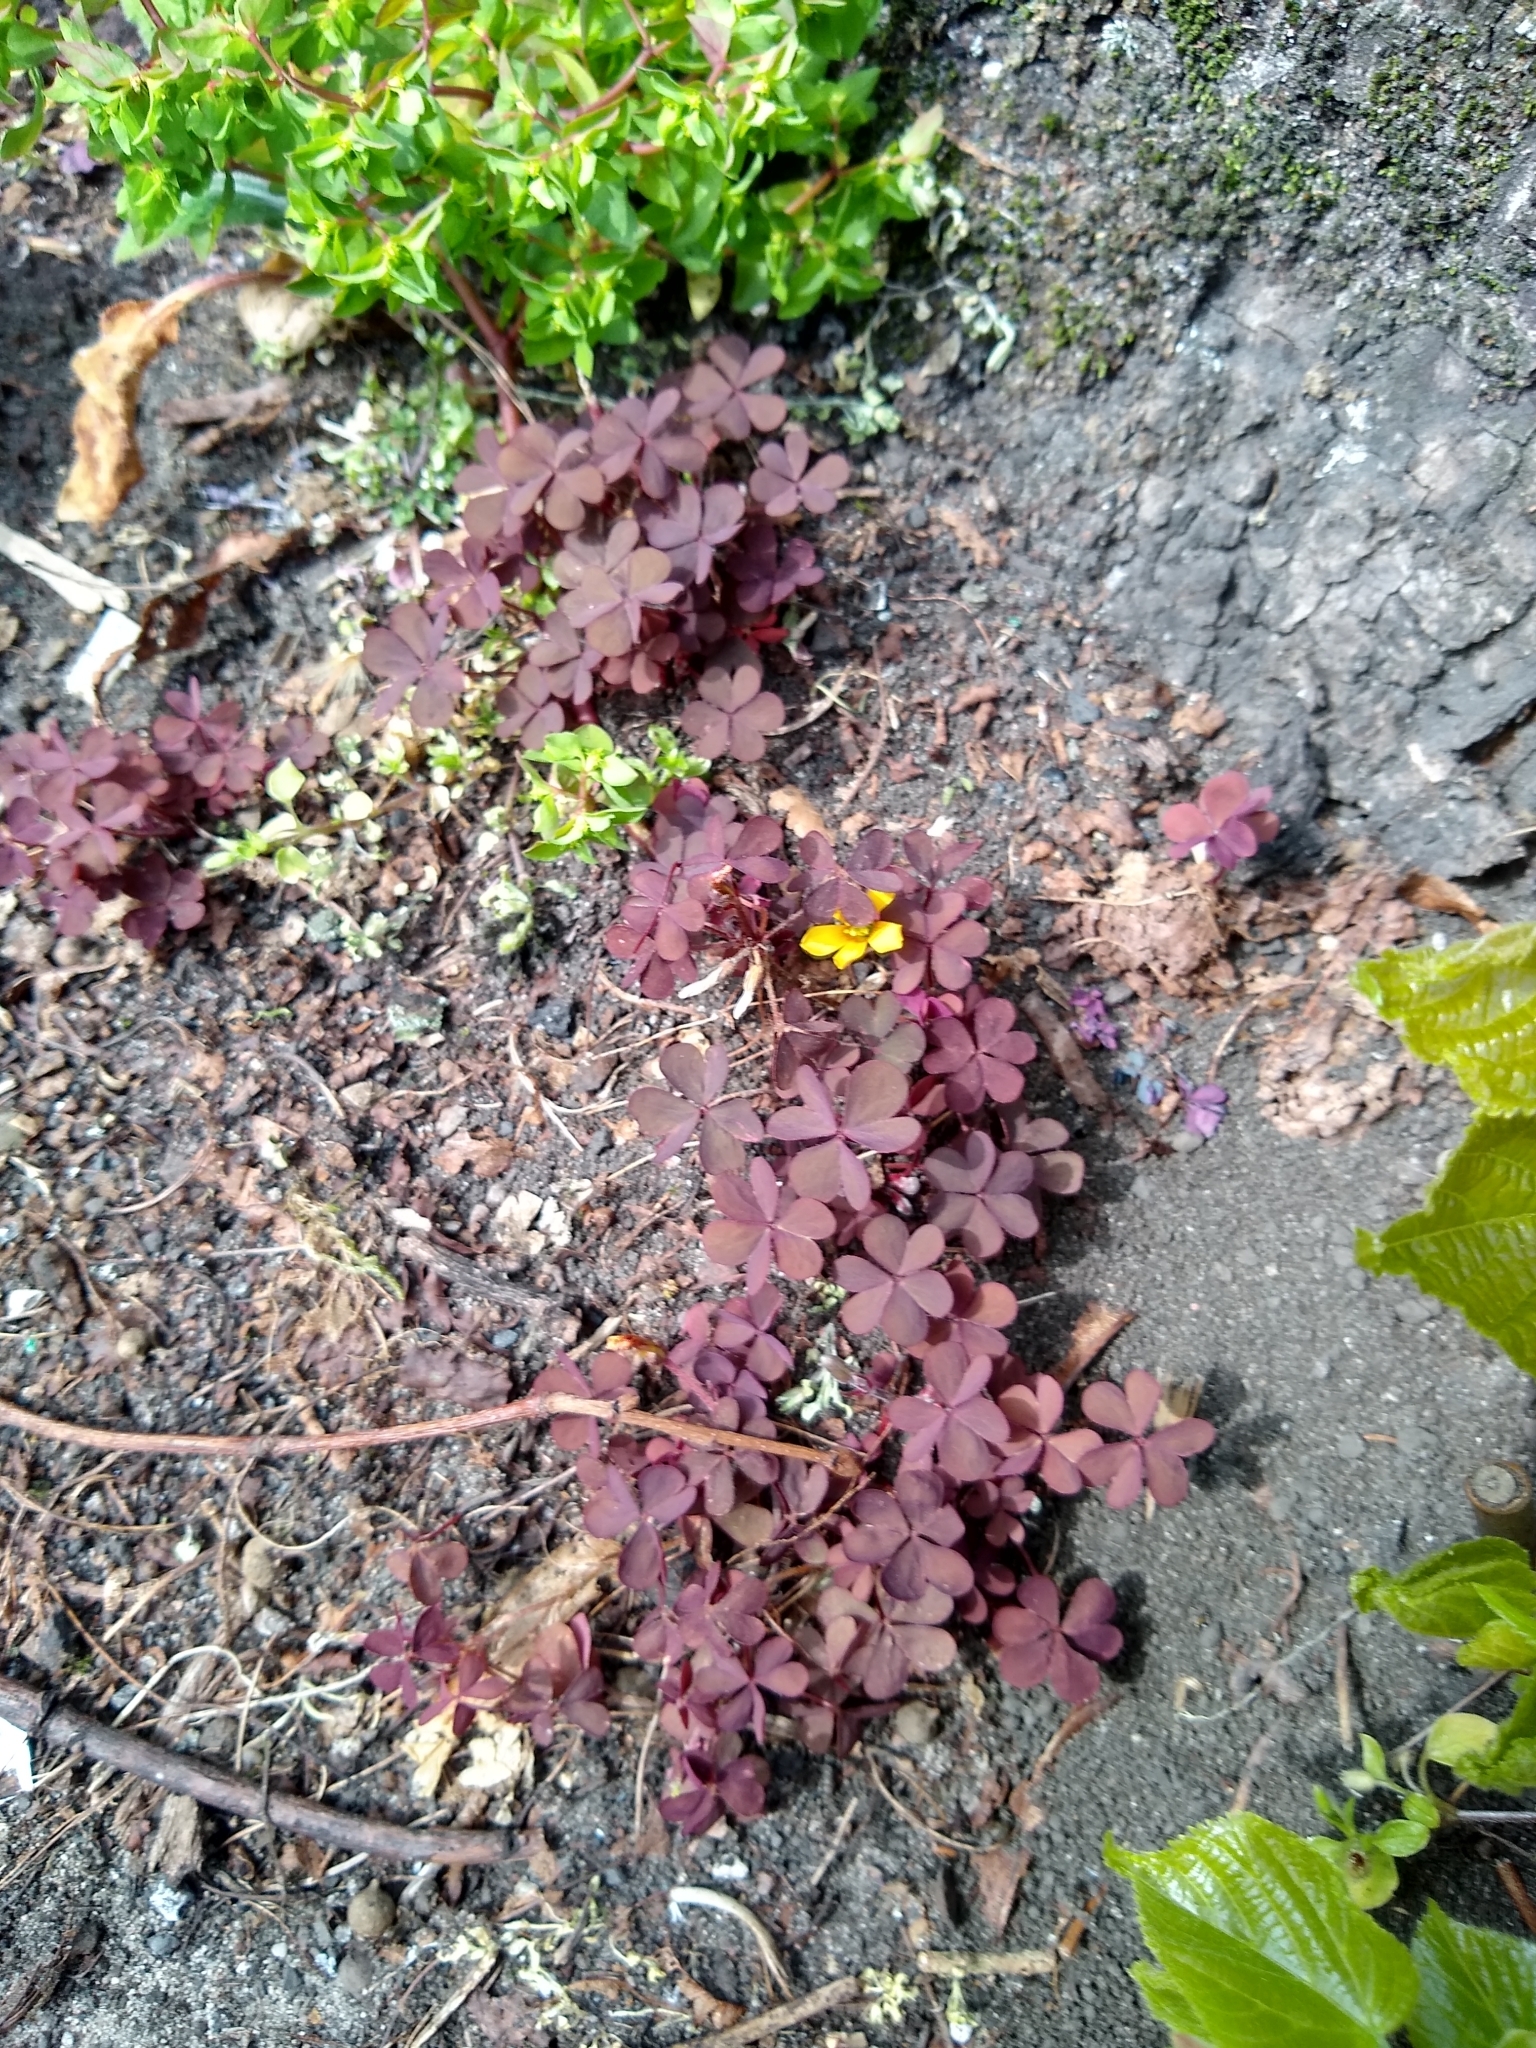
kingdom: Plantae
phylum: Tracheophyta
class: Magnoliopsida
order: Oxalidales
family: Oxalidaceae
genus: Oxalis
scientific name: Oxalis corniculata
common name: Procumbent yellow-sorrel
